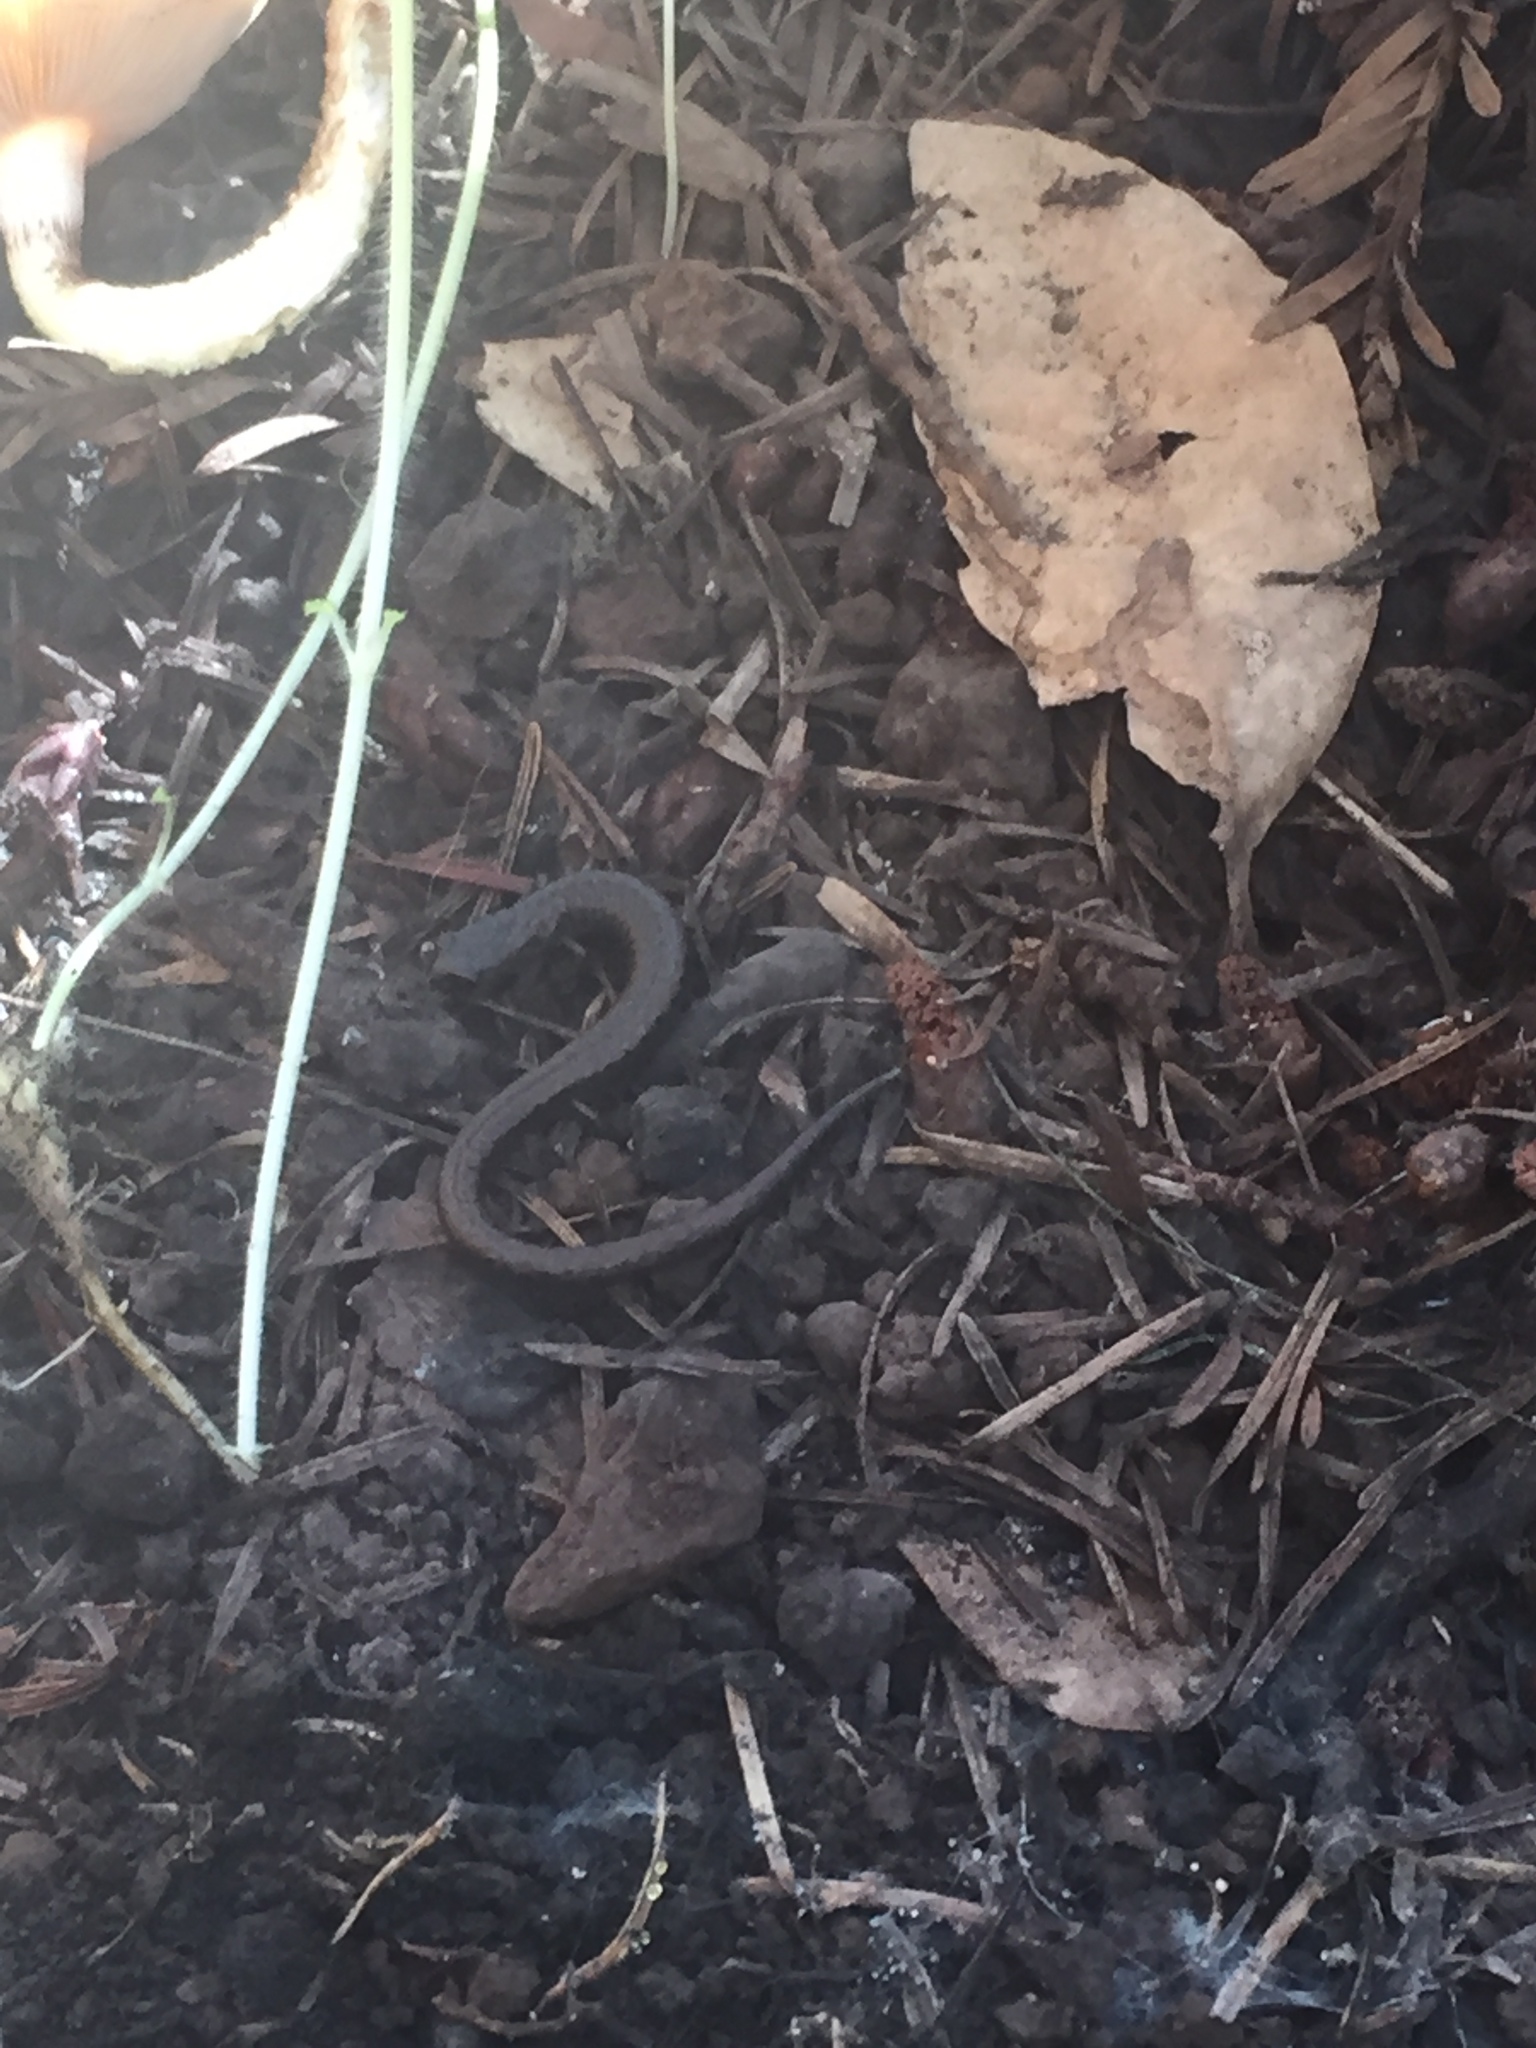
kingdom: Animalia
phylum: Chordata
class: Amphibia
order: Caudata
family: Plethodontidae
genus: Batrachoseps
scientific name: Batrachoseps attenuatus
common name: California slender salamander
